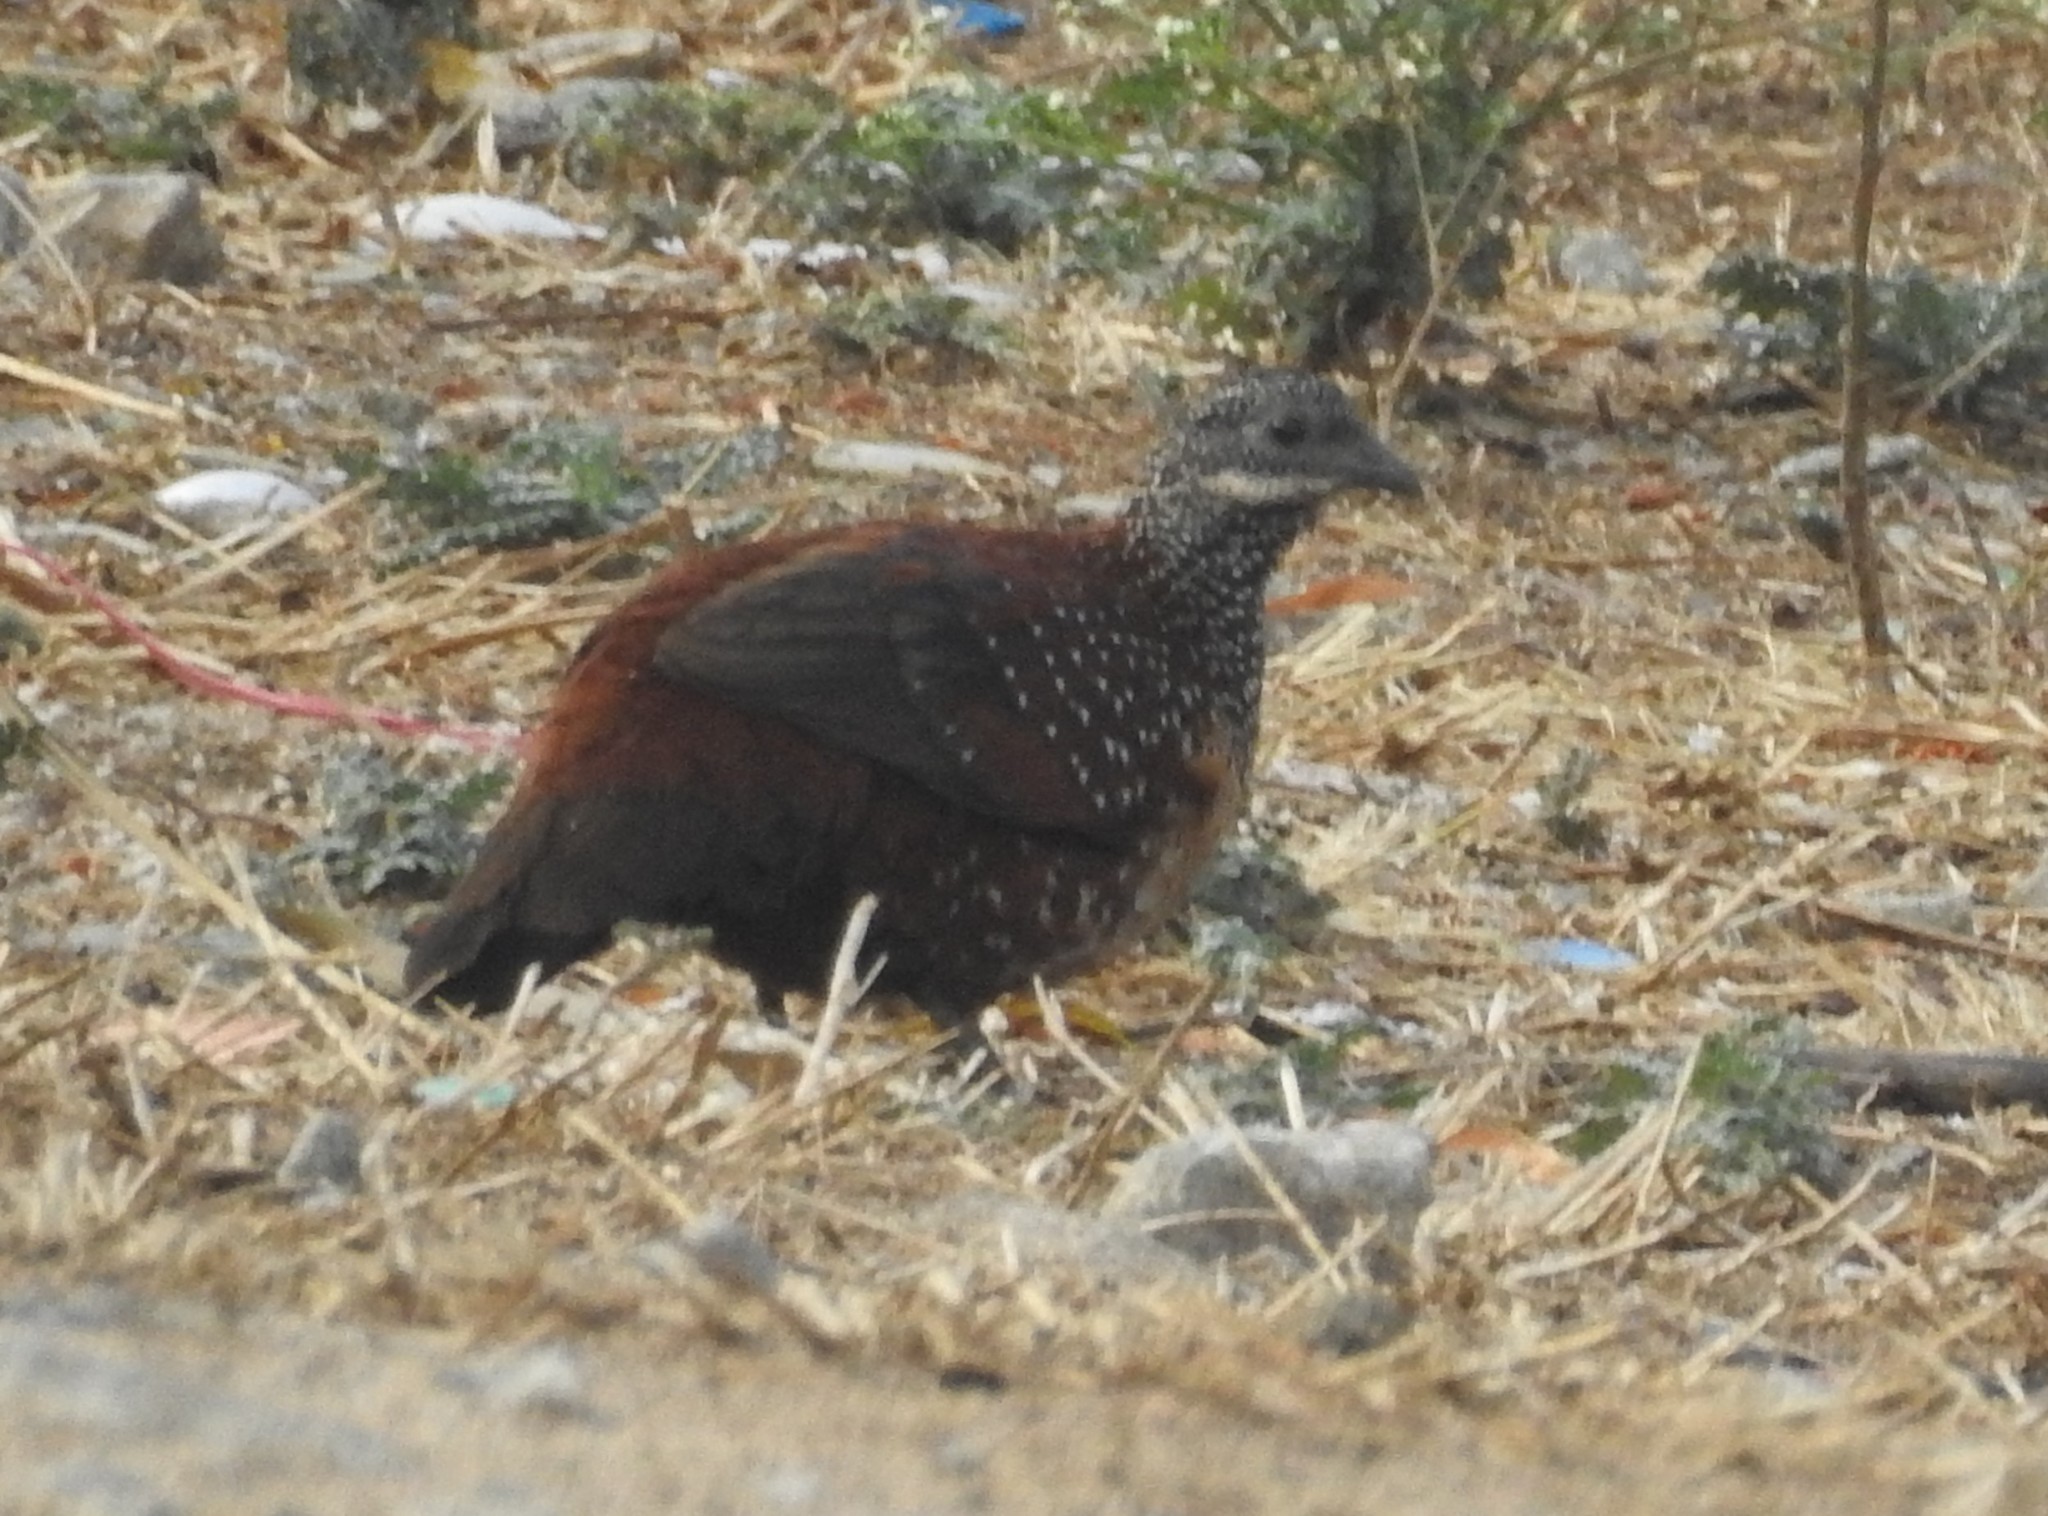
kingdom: Animalia
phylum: Chordata
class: Aves
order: Galliformes
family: Phasianidae
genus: Galloperdix
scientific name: Galloperdix lunulata
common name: Painted spurfowl
